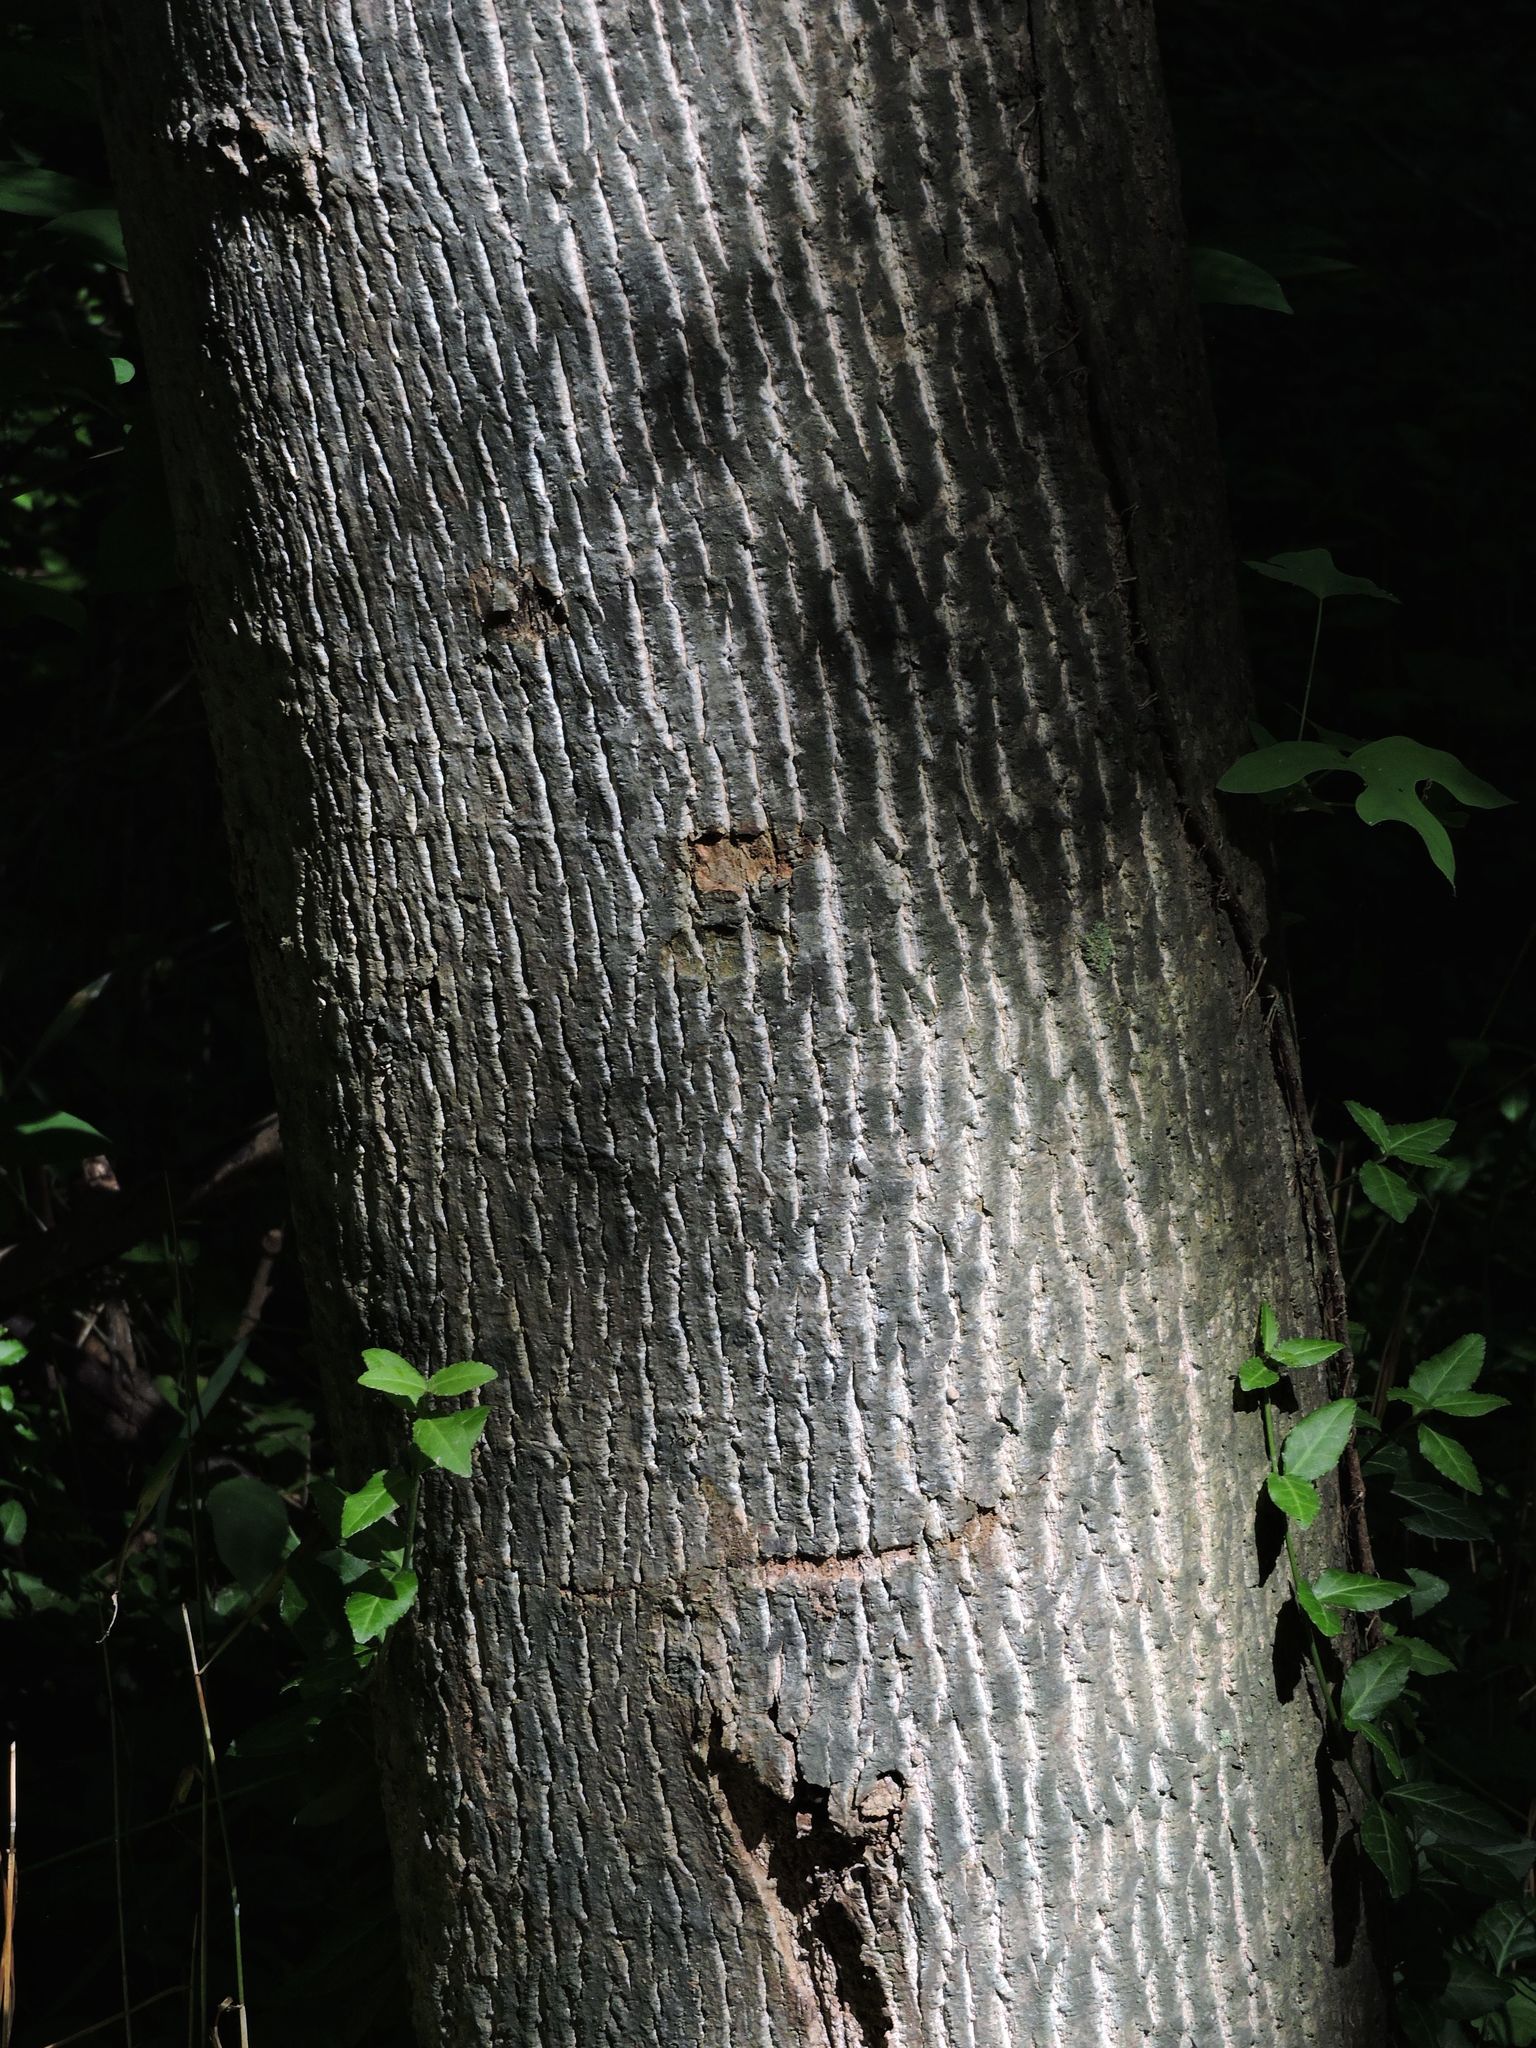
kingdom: Plantae
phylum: Tracheophyta
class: Magnoliopsida
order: Magnoliales
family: Magnoliaceae
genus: Liriodendron
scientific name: Liriodendron tulipifera
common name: Tulip tree
